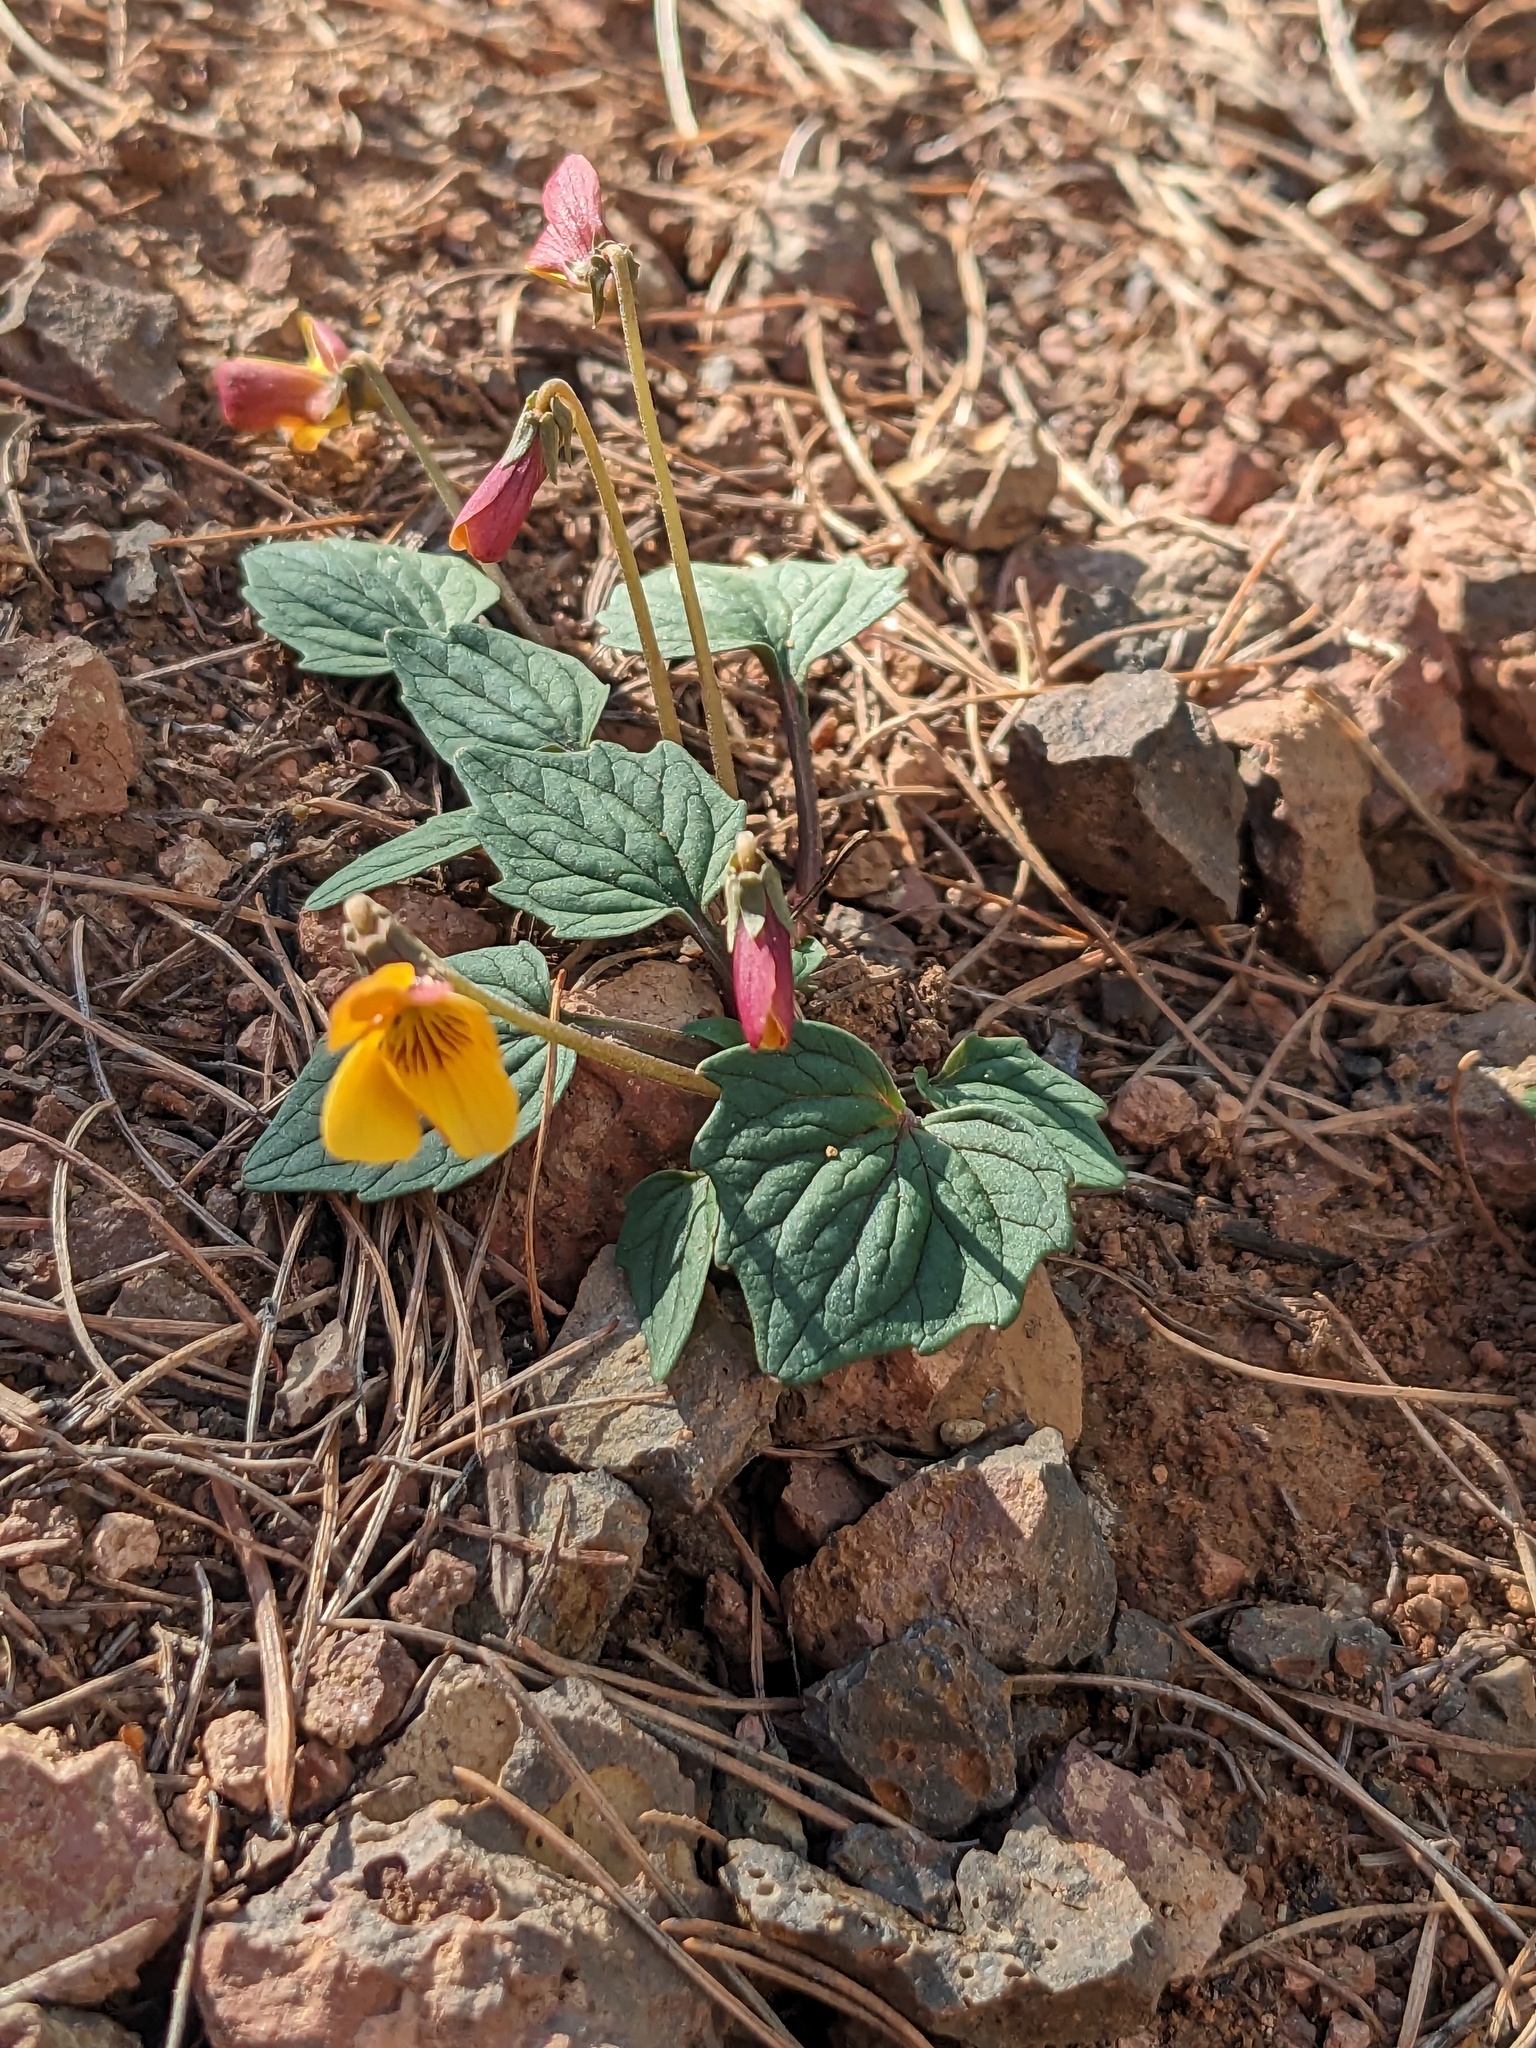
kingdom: Plantae
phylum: Tracheophyta
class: Magnoliopsida
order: Malpighiales
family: Violaceae
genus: Viola
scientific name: Viola purpurea
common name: Pine violet
